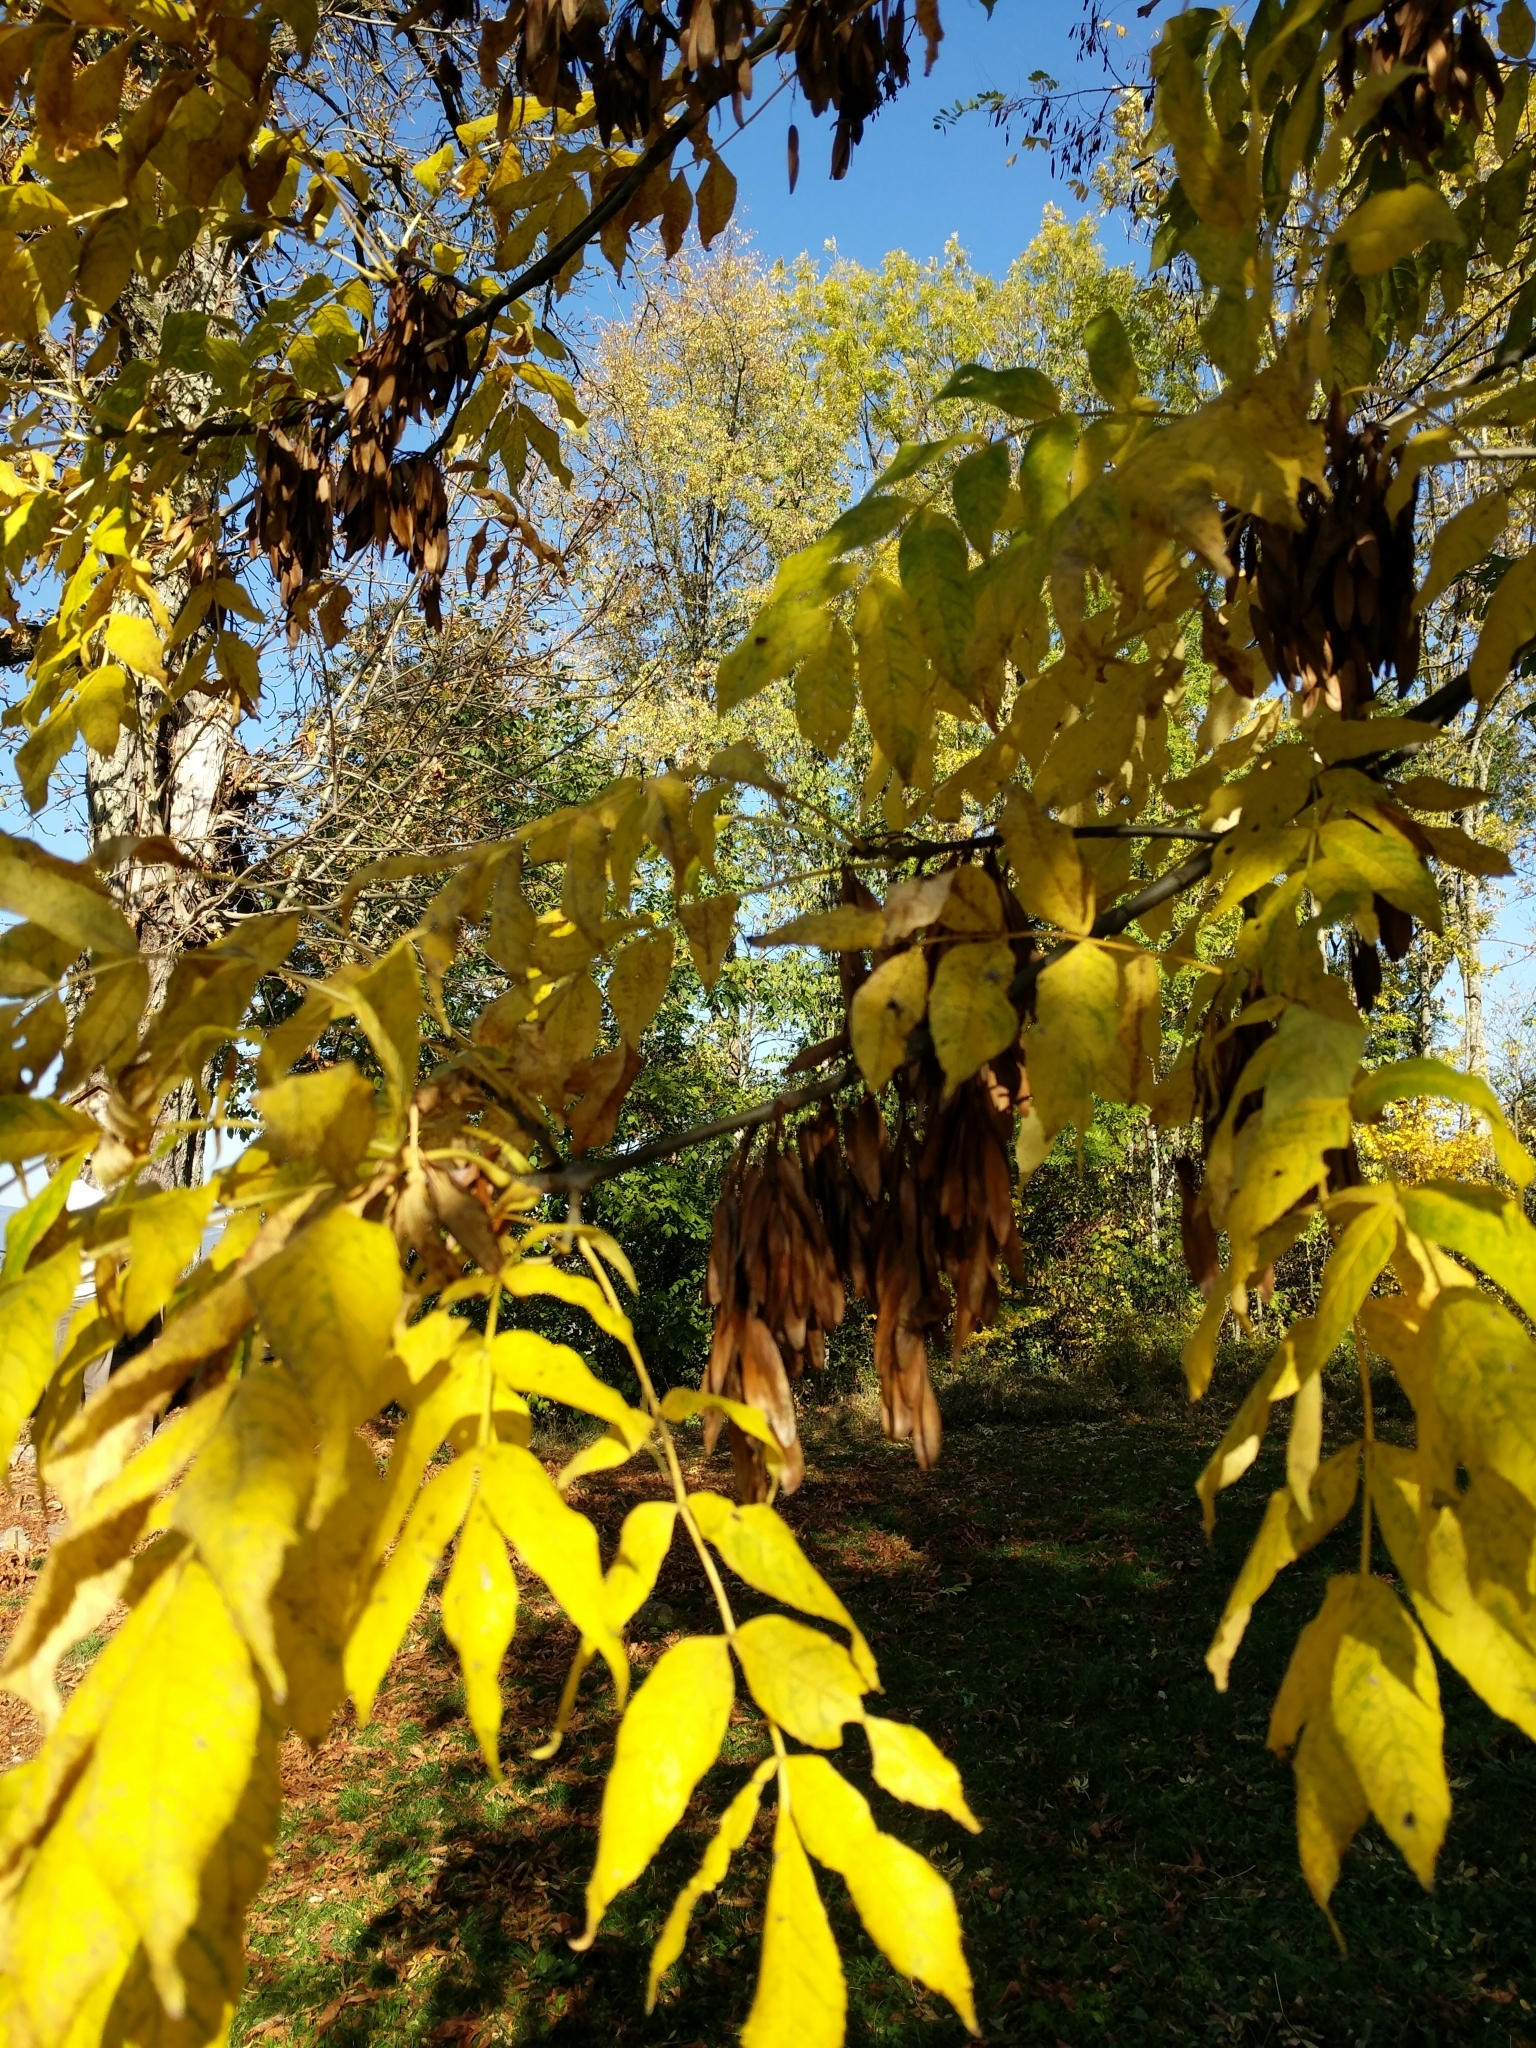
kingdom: Plantae
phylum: Tracheophyta
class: Magnoliopsida
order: Lamiales
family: Oleaceae
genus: Fraxinus
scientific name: Fraxinus excelsior
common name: European ash
